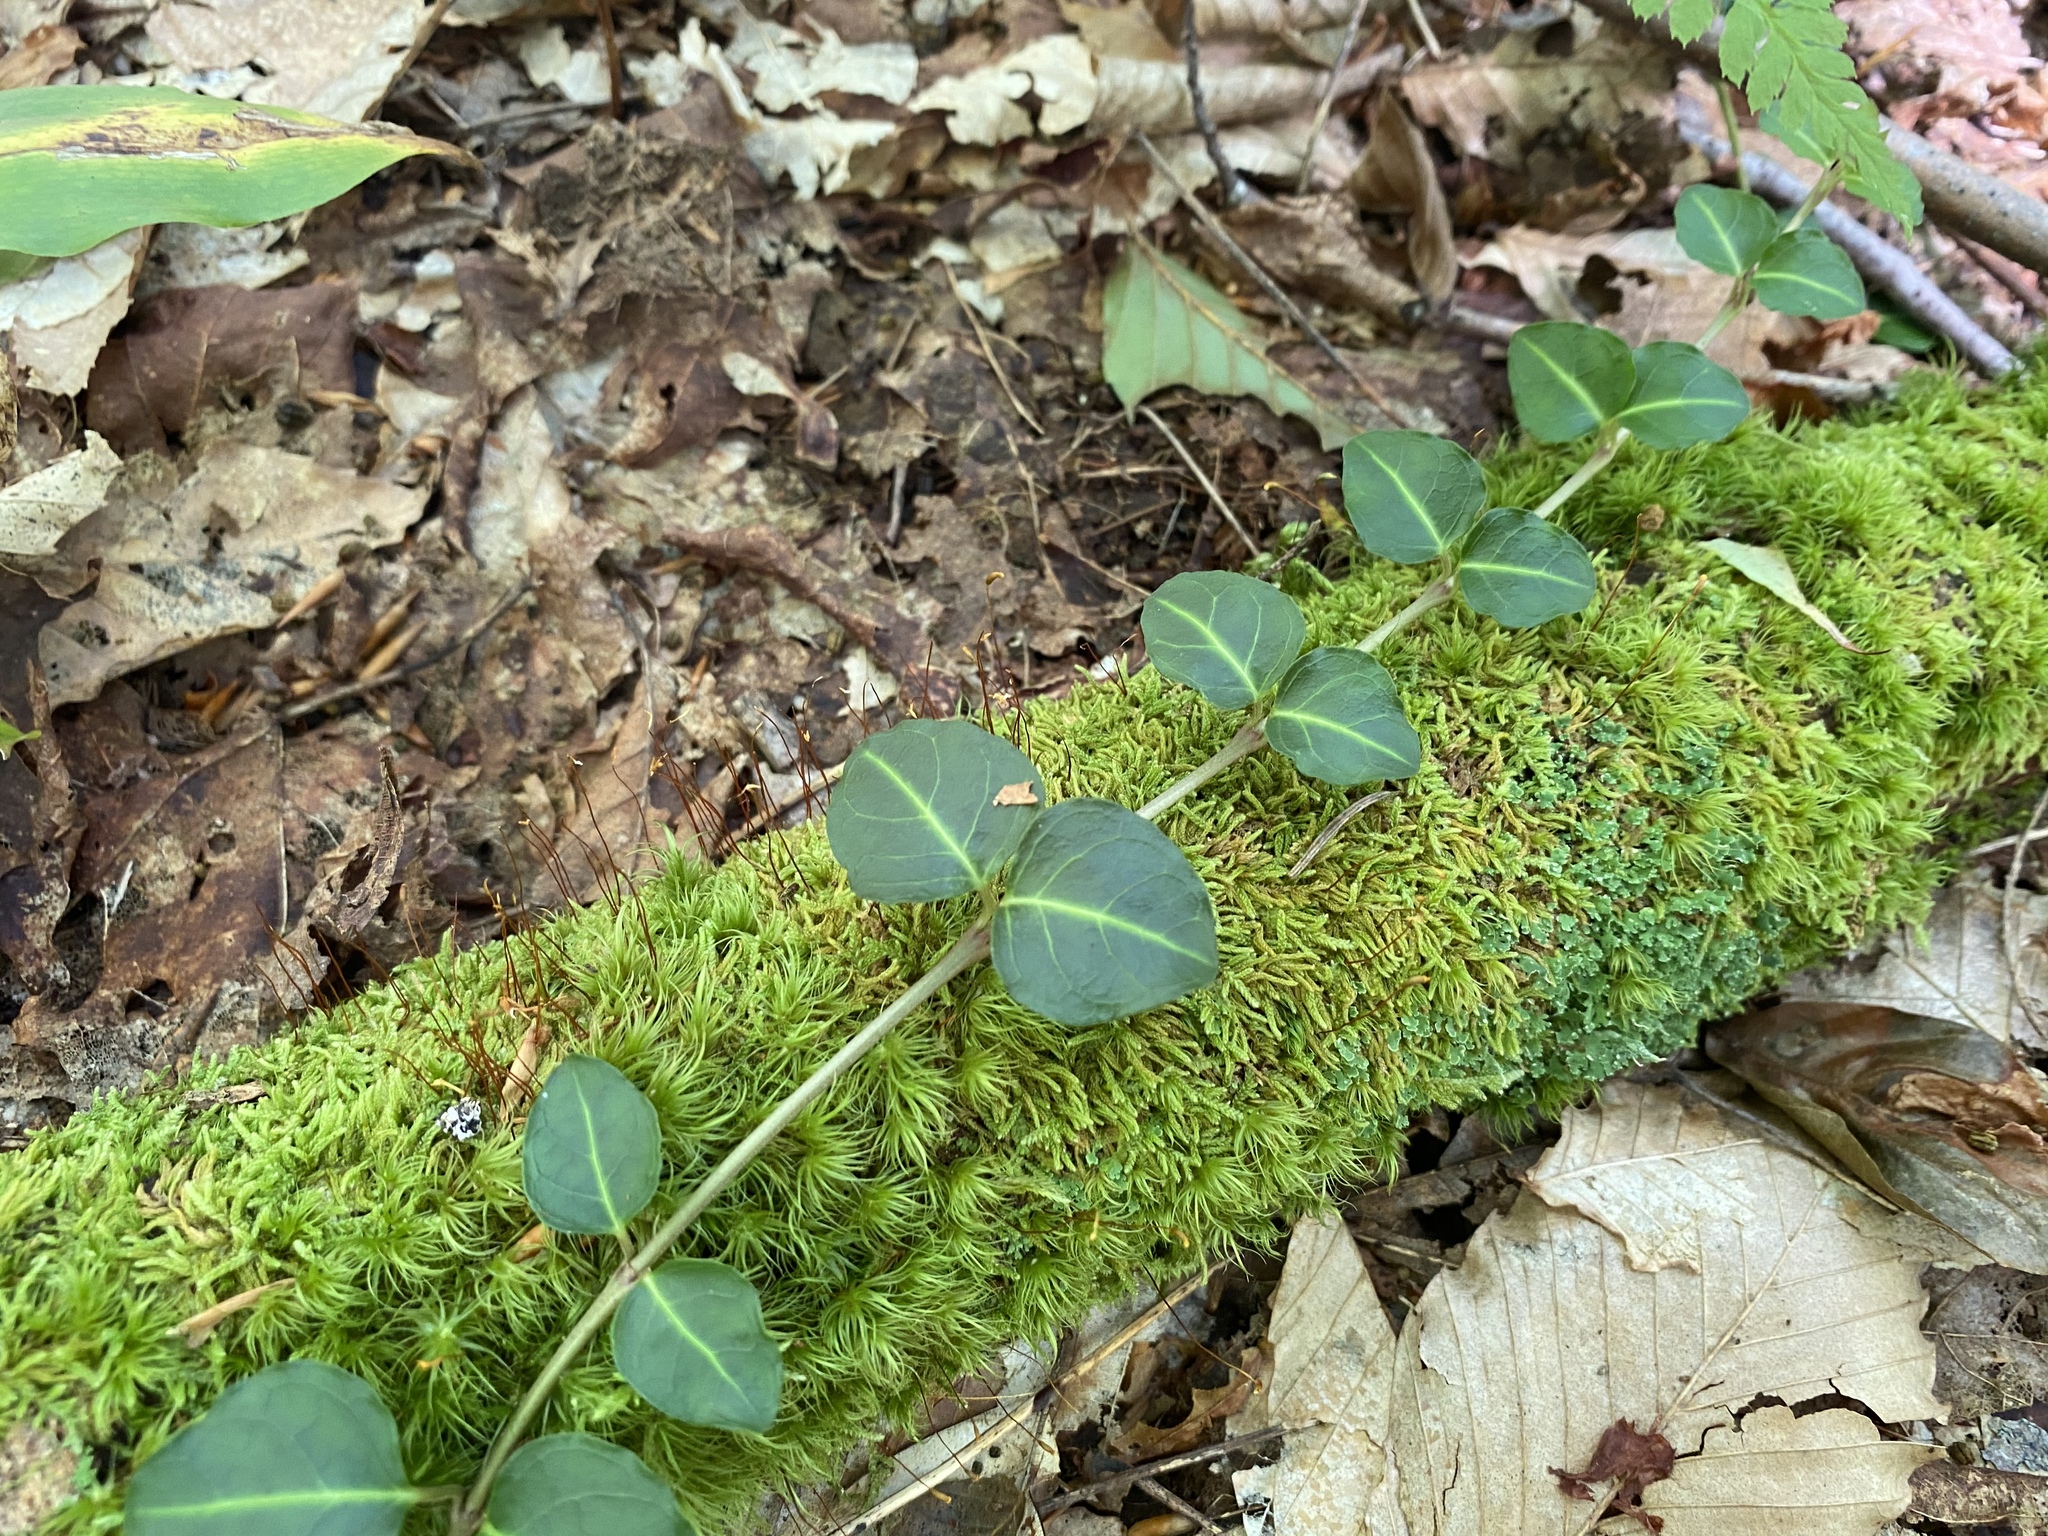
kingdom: Plantae
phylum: Tracheophyta
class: Magnoliopsida
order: Gentianales
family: Rubiaceae
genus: Mitchella
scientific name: Mitchella repens
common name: Partridge-berry
